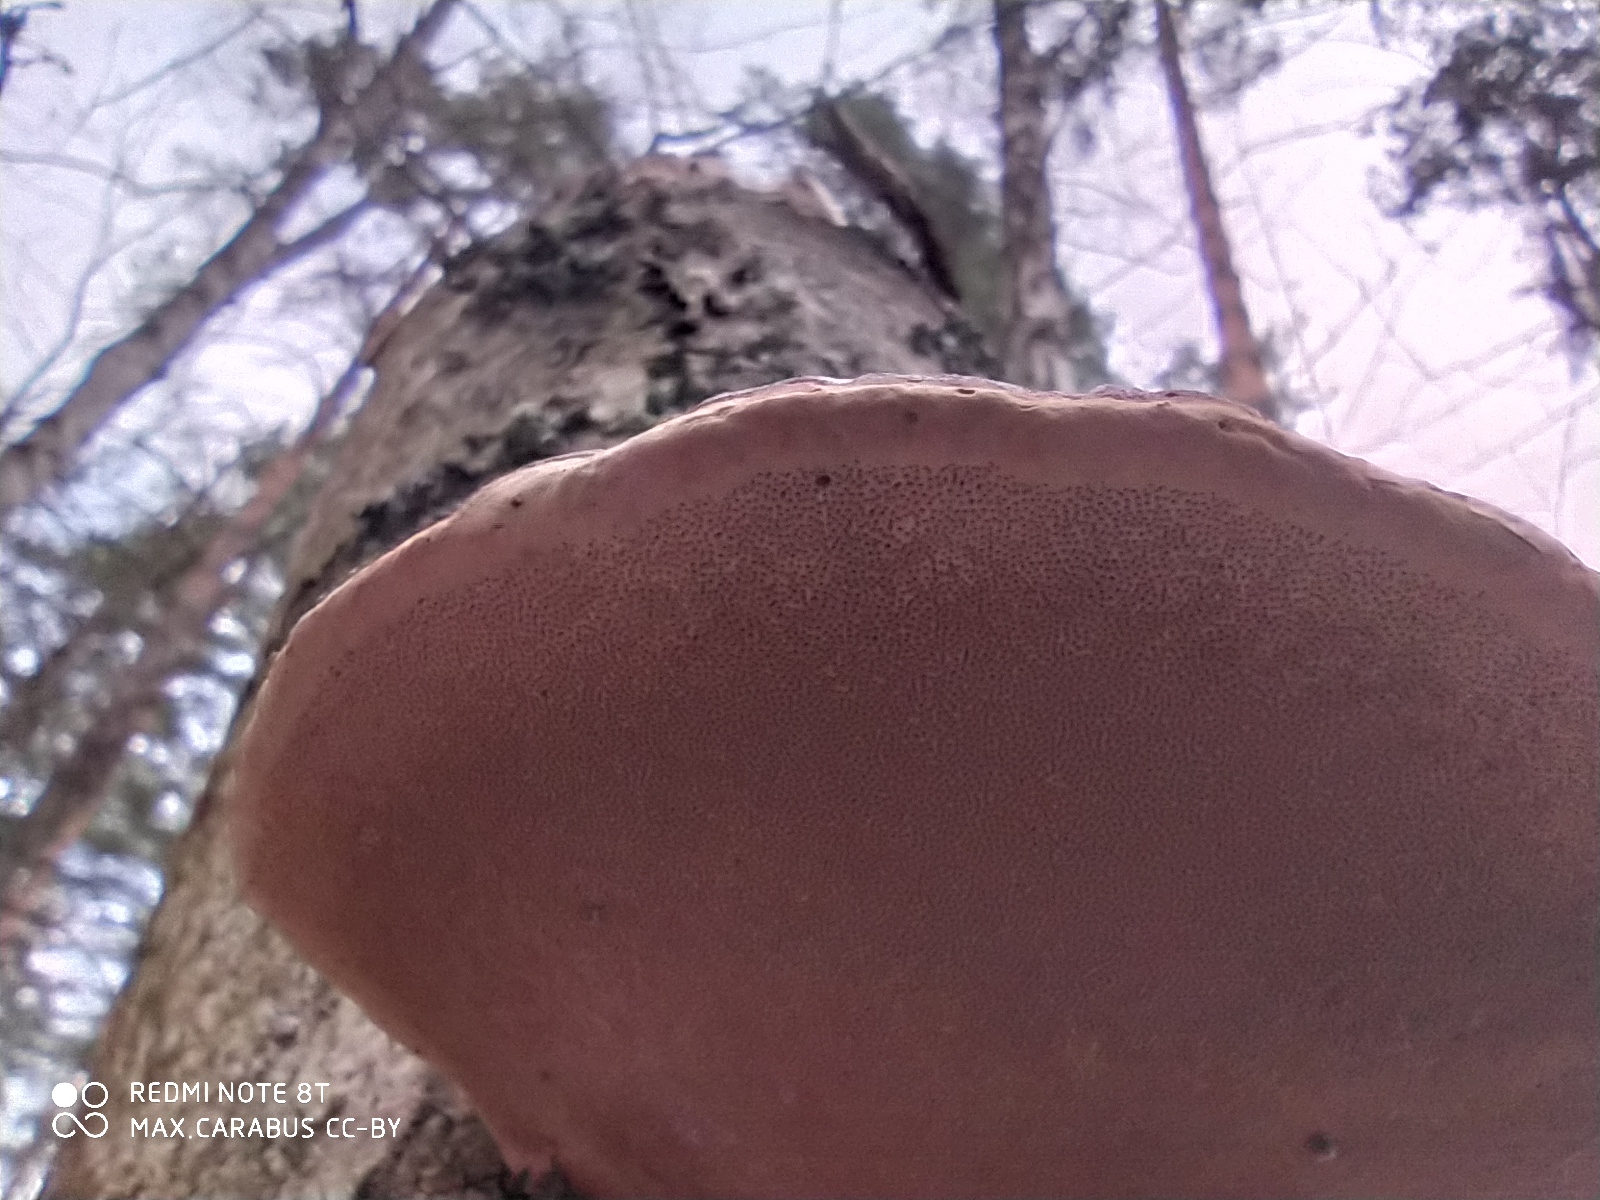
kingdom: Fungi
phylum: Basidiomycota
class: Agaricomycetes
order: Polyporales
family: Fomitopsidaceae
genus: Fomitopsis
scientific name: Fomitopsis pinicola
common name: Red-belted bracket
